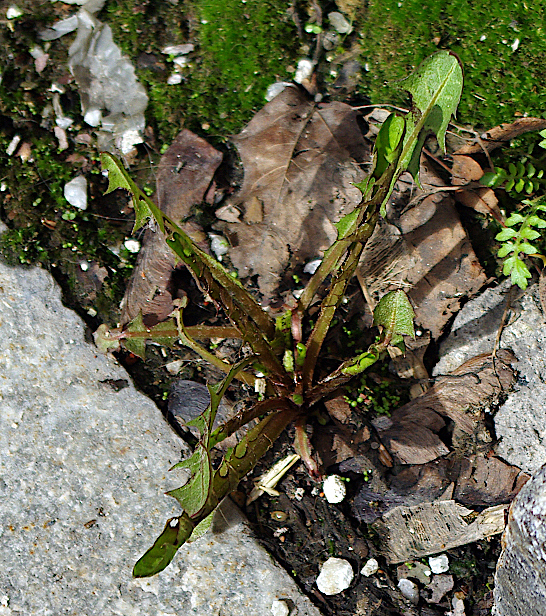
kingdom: Plantae
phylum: Tracheophyta
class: Magnoliopsida
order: Asterales
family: Asteraceae
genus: Taraxacum
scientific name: Taraxacum officinale
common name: Common dandelion
